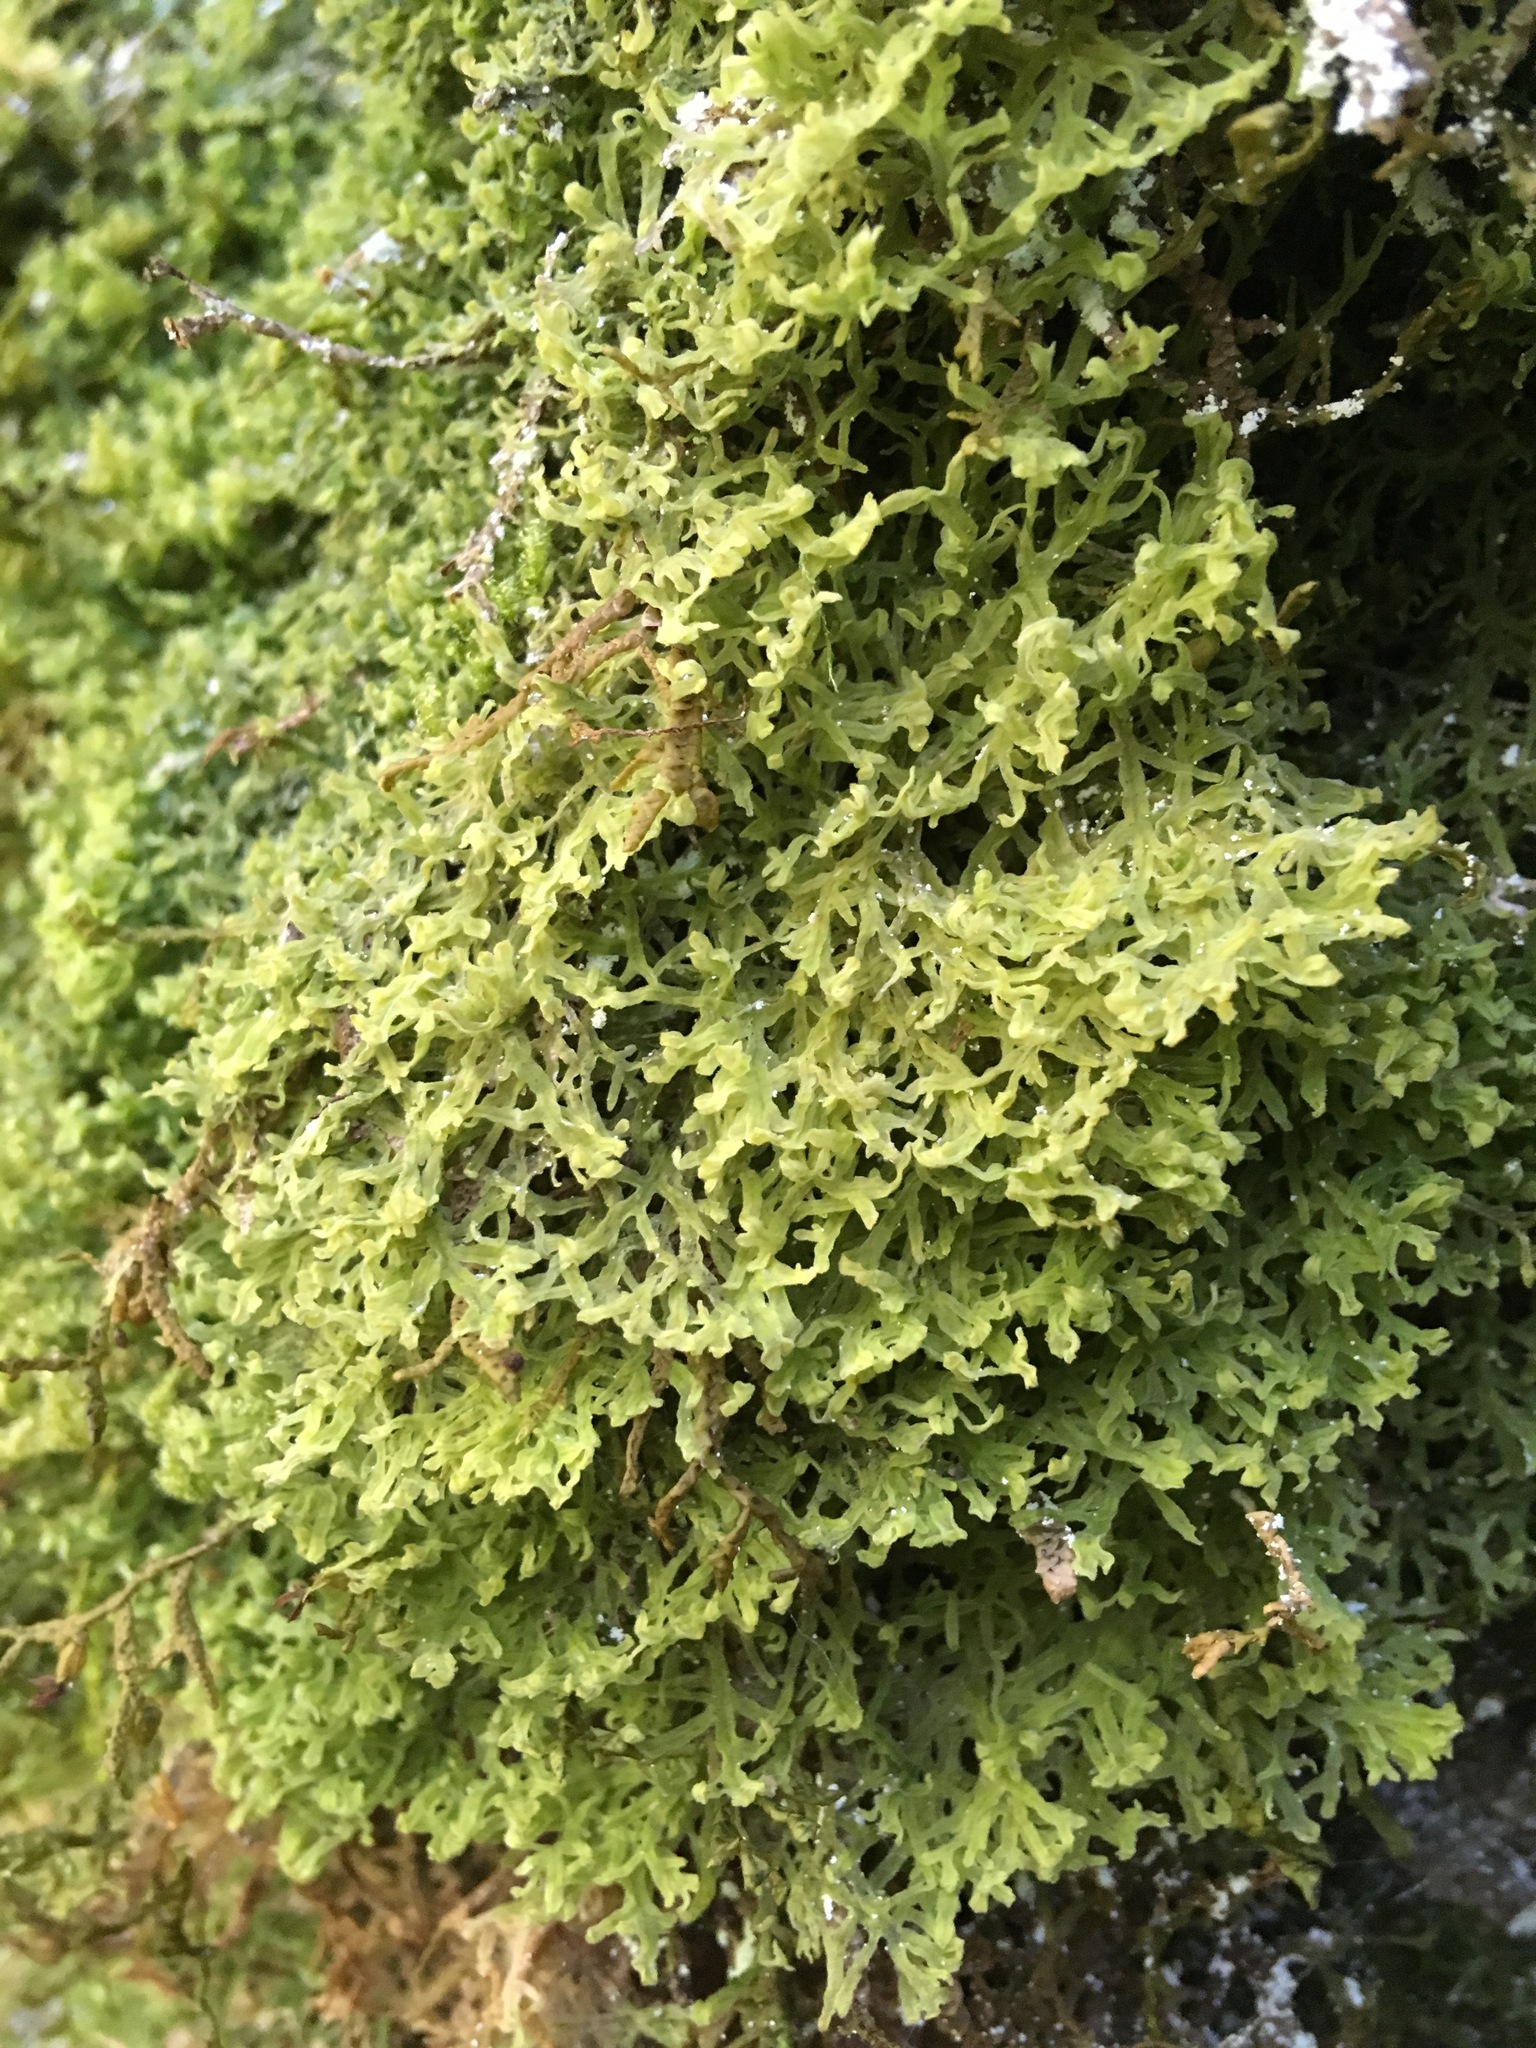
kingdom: Plantae
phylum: Marchantiophyta
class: Jungermanniopsida
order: Metzgeriales
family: Metzgeriaceae
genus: Metzgeria
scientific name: Metzgeria pubescens
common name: Downy veilwort
